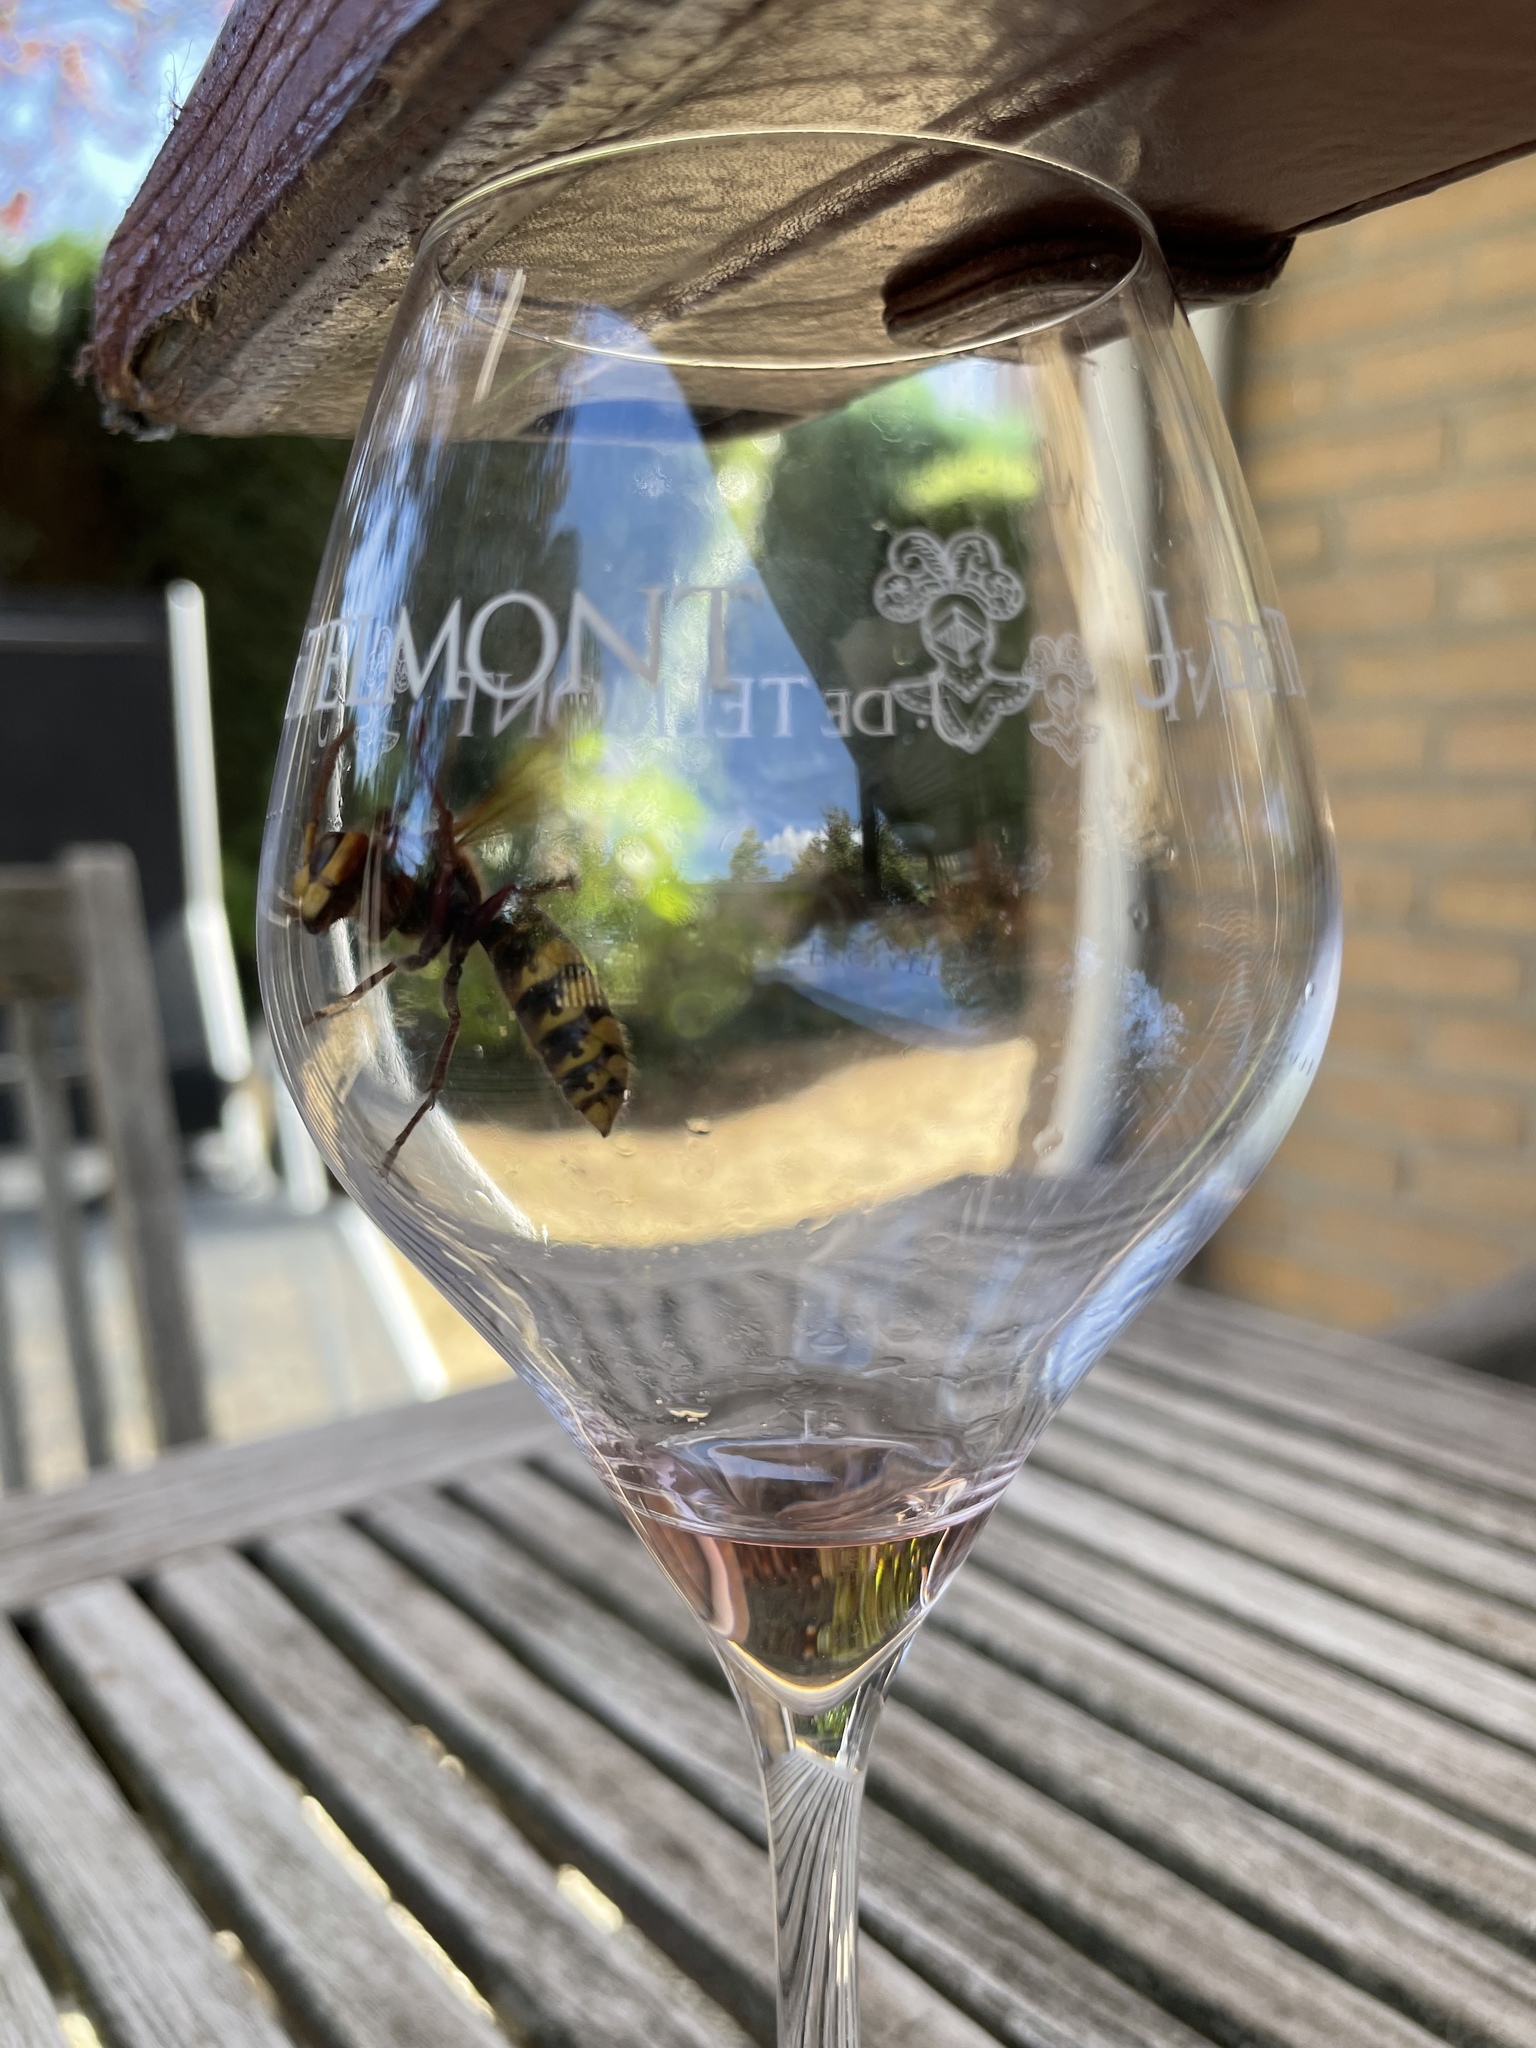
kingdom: Animalia
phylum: Arthropoda
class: Insecta
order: Hymenoptera
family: Vespidae
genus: Vespa
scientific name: Vespa crabro
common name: Hornet
